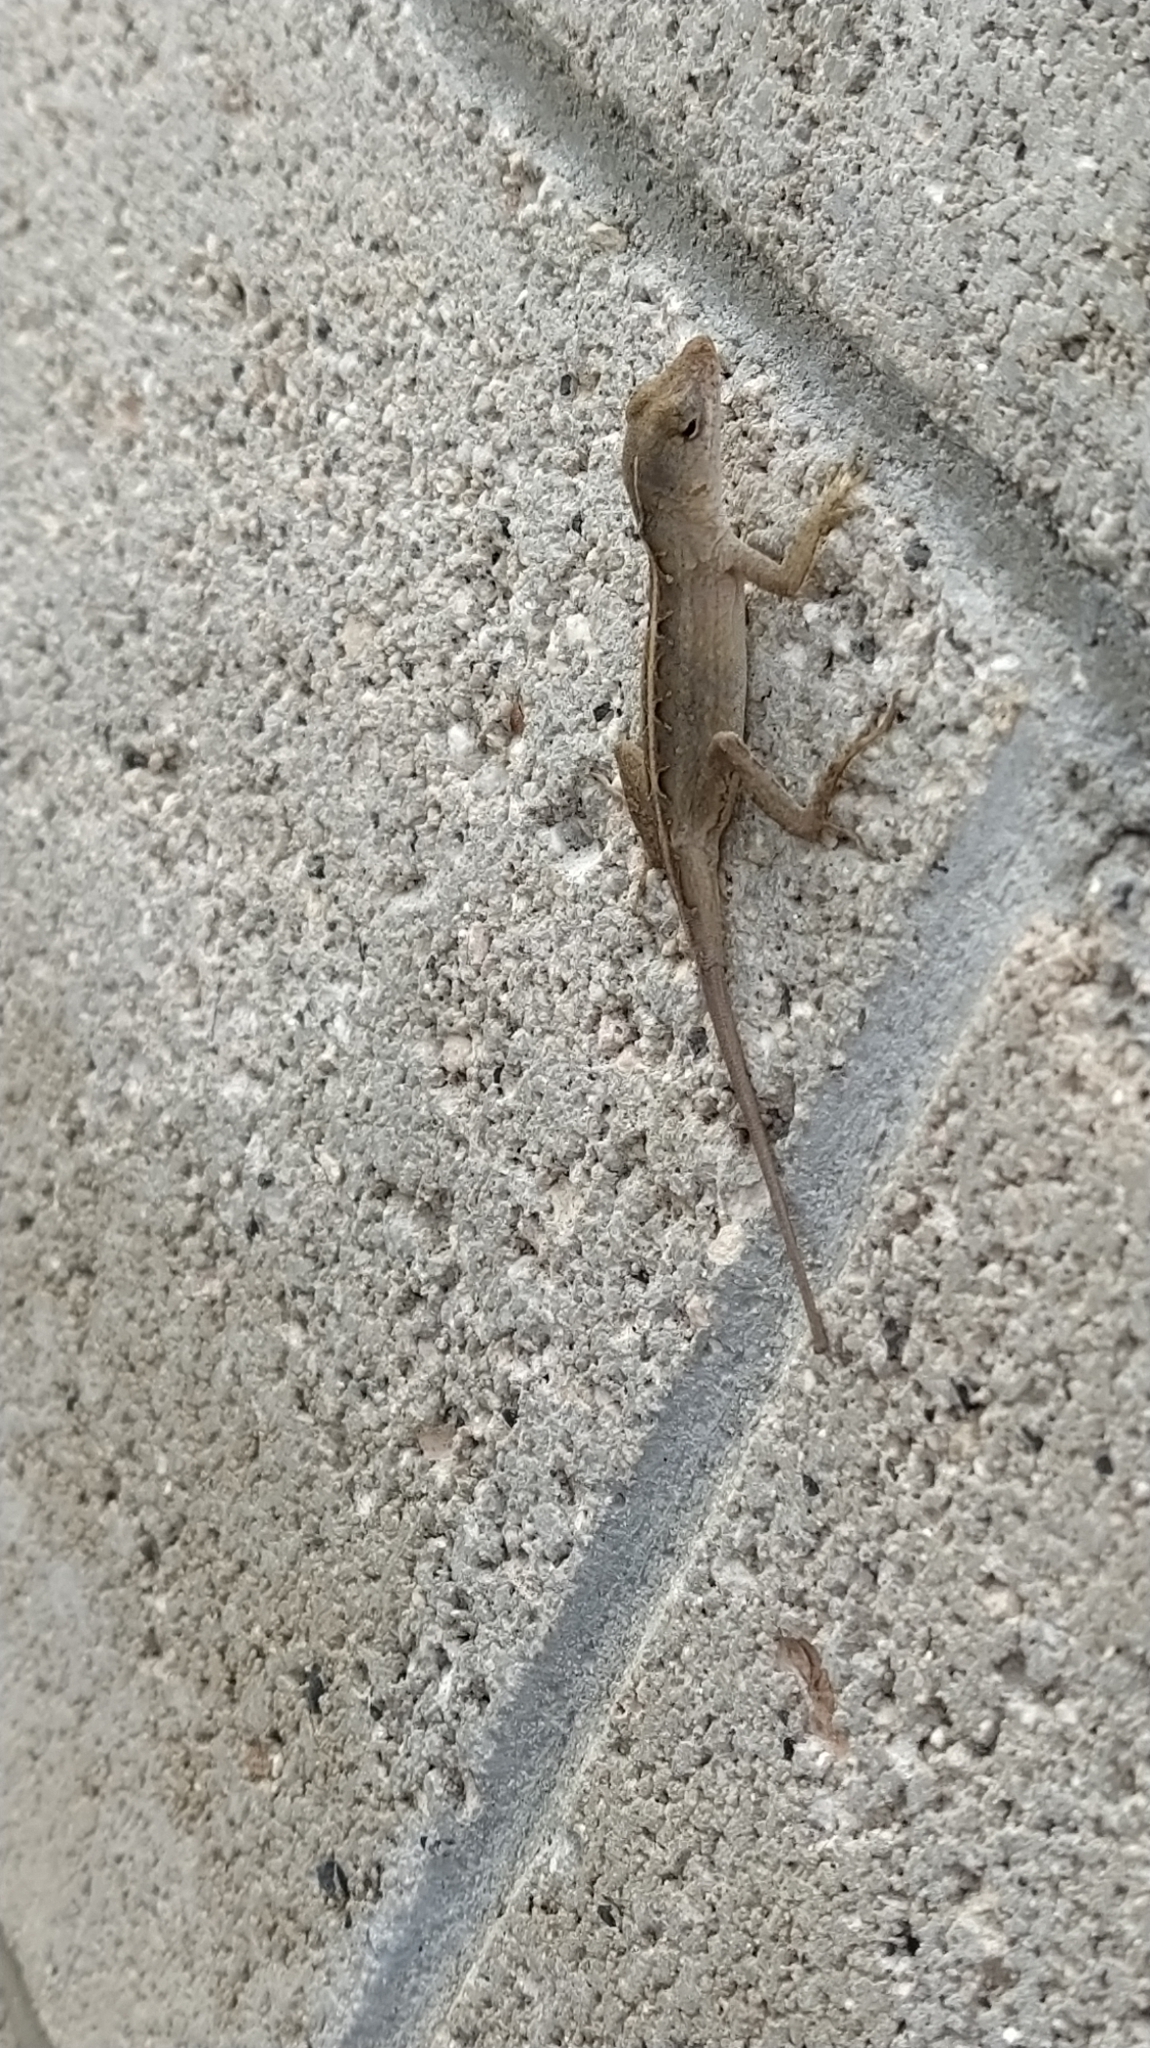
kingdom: Animalia
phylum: Chordata
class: Squamata
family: Dactyloidae
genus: Anolis
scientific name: Anolis sagrei
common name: Brown anole
